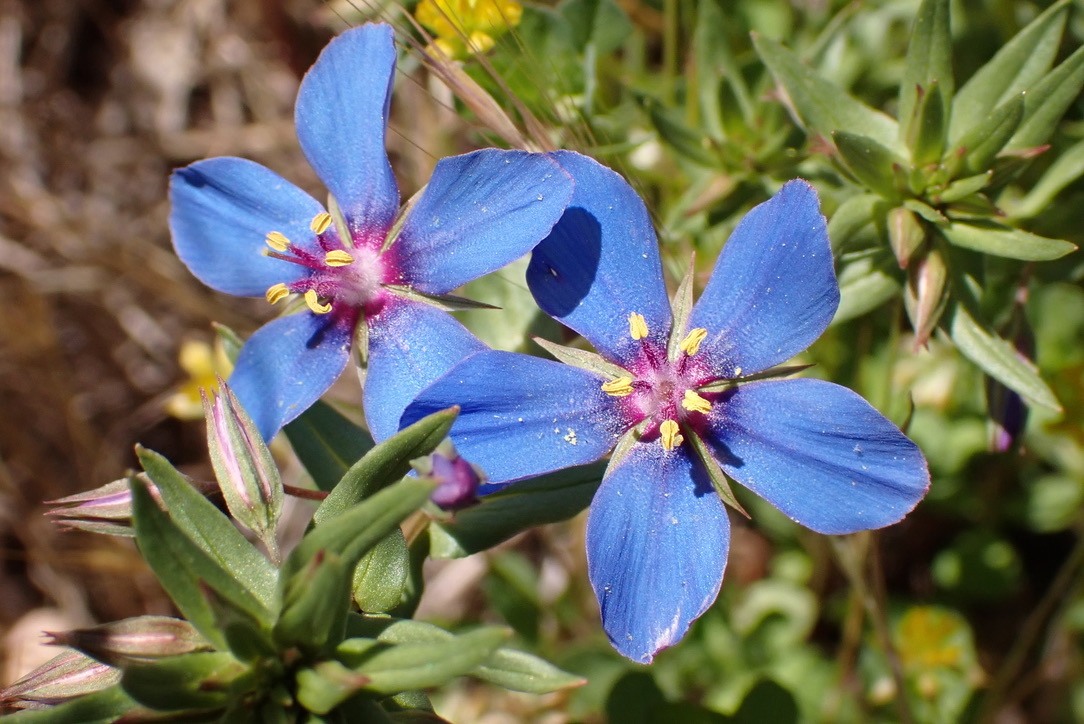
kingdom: Plantae
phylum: Tracheophyta
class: Magnoliopsida
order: Ericales
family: Primulaceae
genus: Lysimachia
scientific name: Lysimachia monelli
